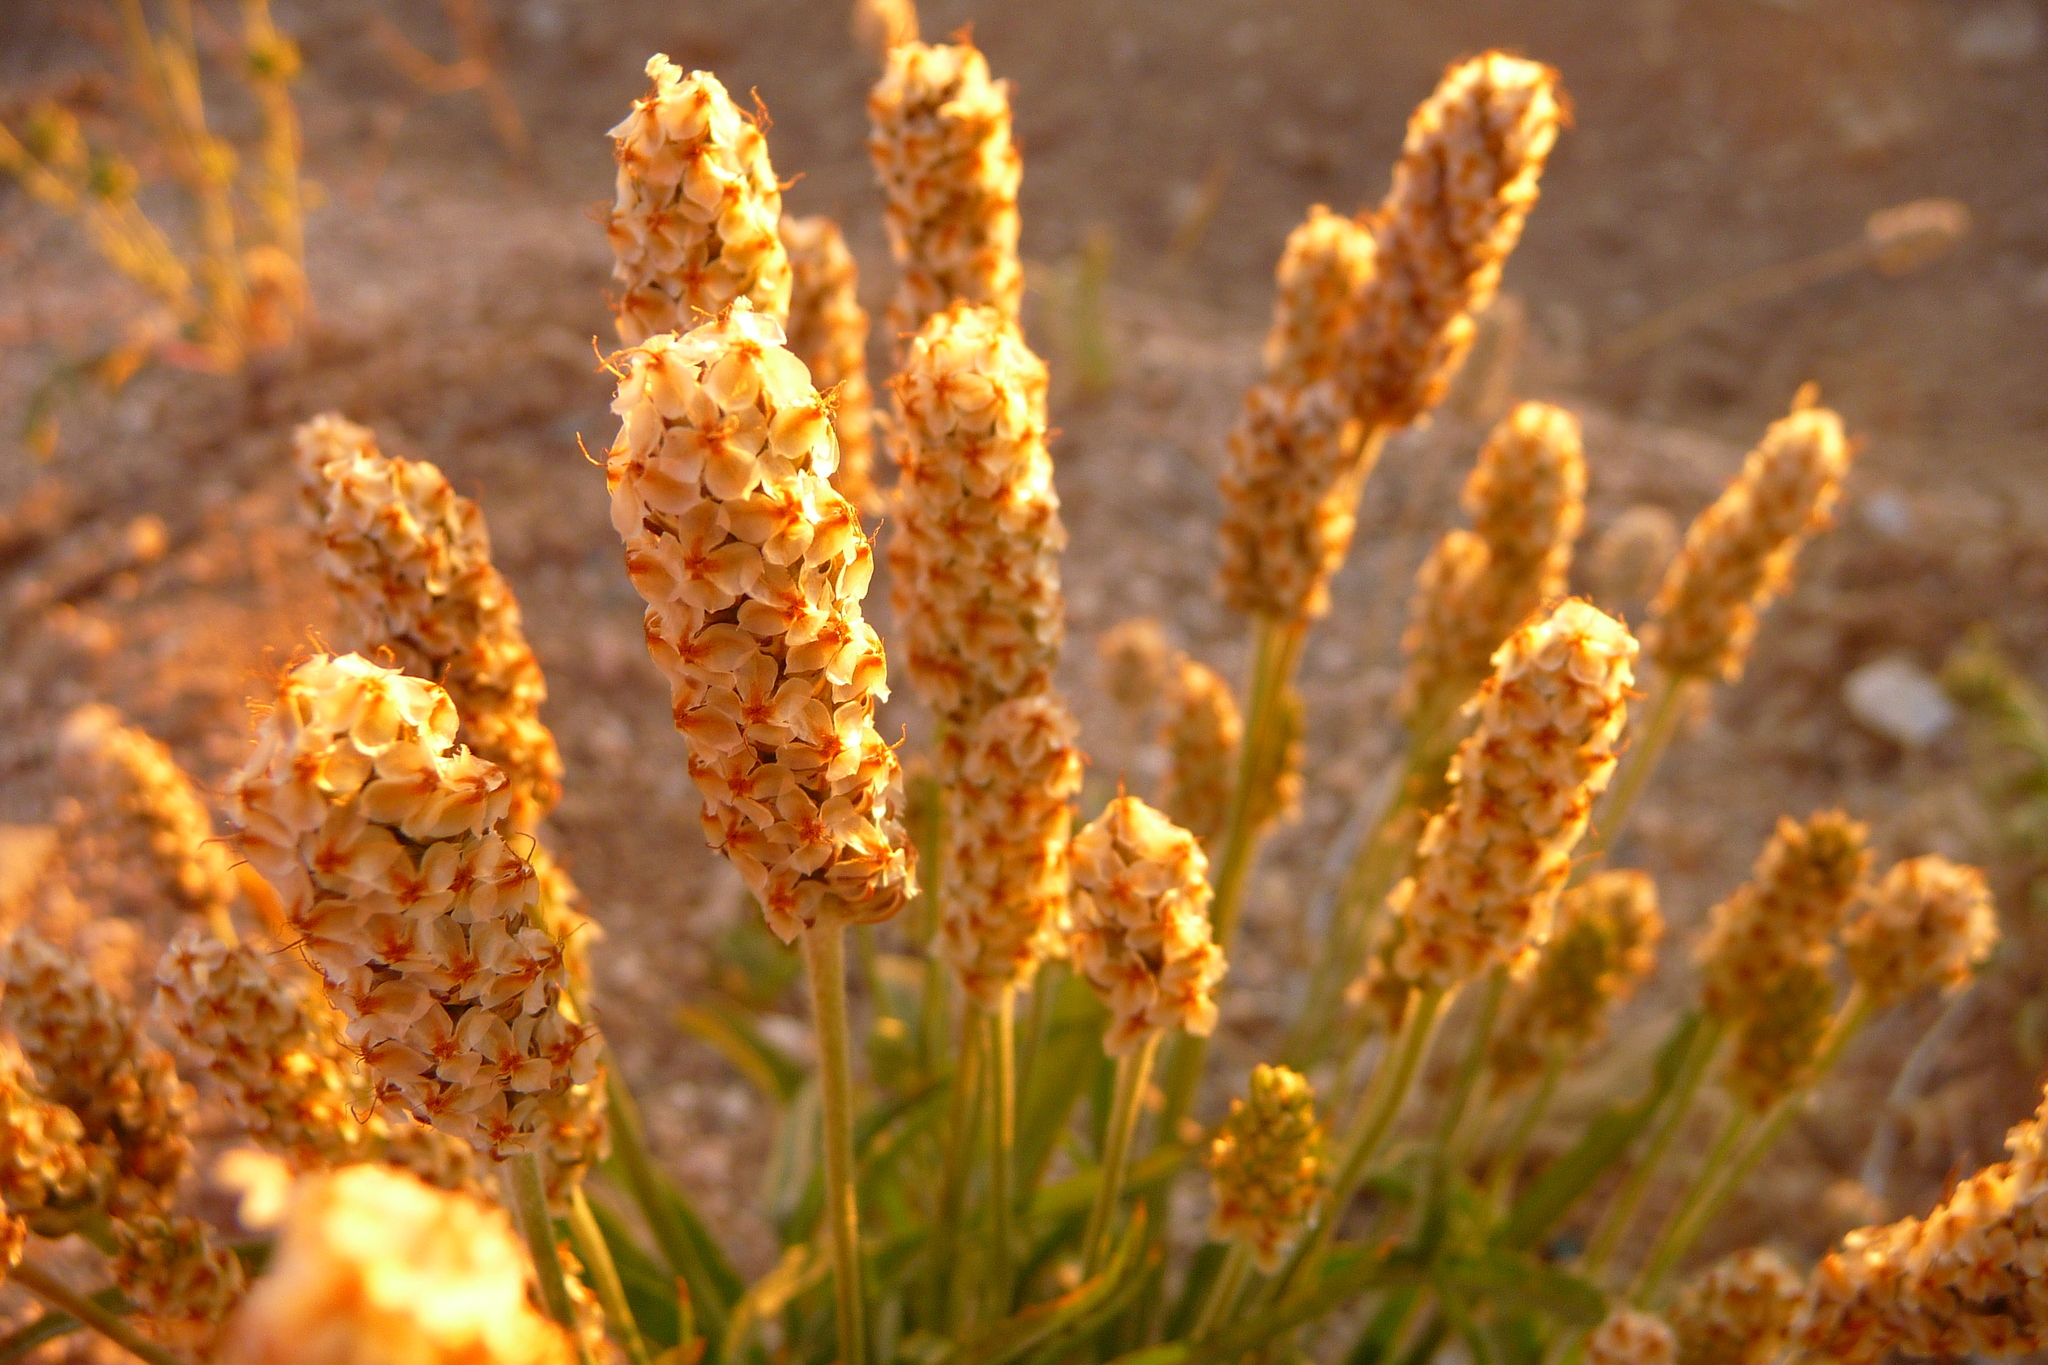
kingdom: Plantae
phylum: Tracheophyta
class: Magnoliopsida
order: Lamiales
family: Plantaginaceae
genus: Plantago
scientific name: Plantago ovata
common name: Blond plantain
